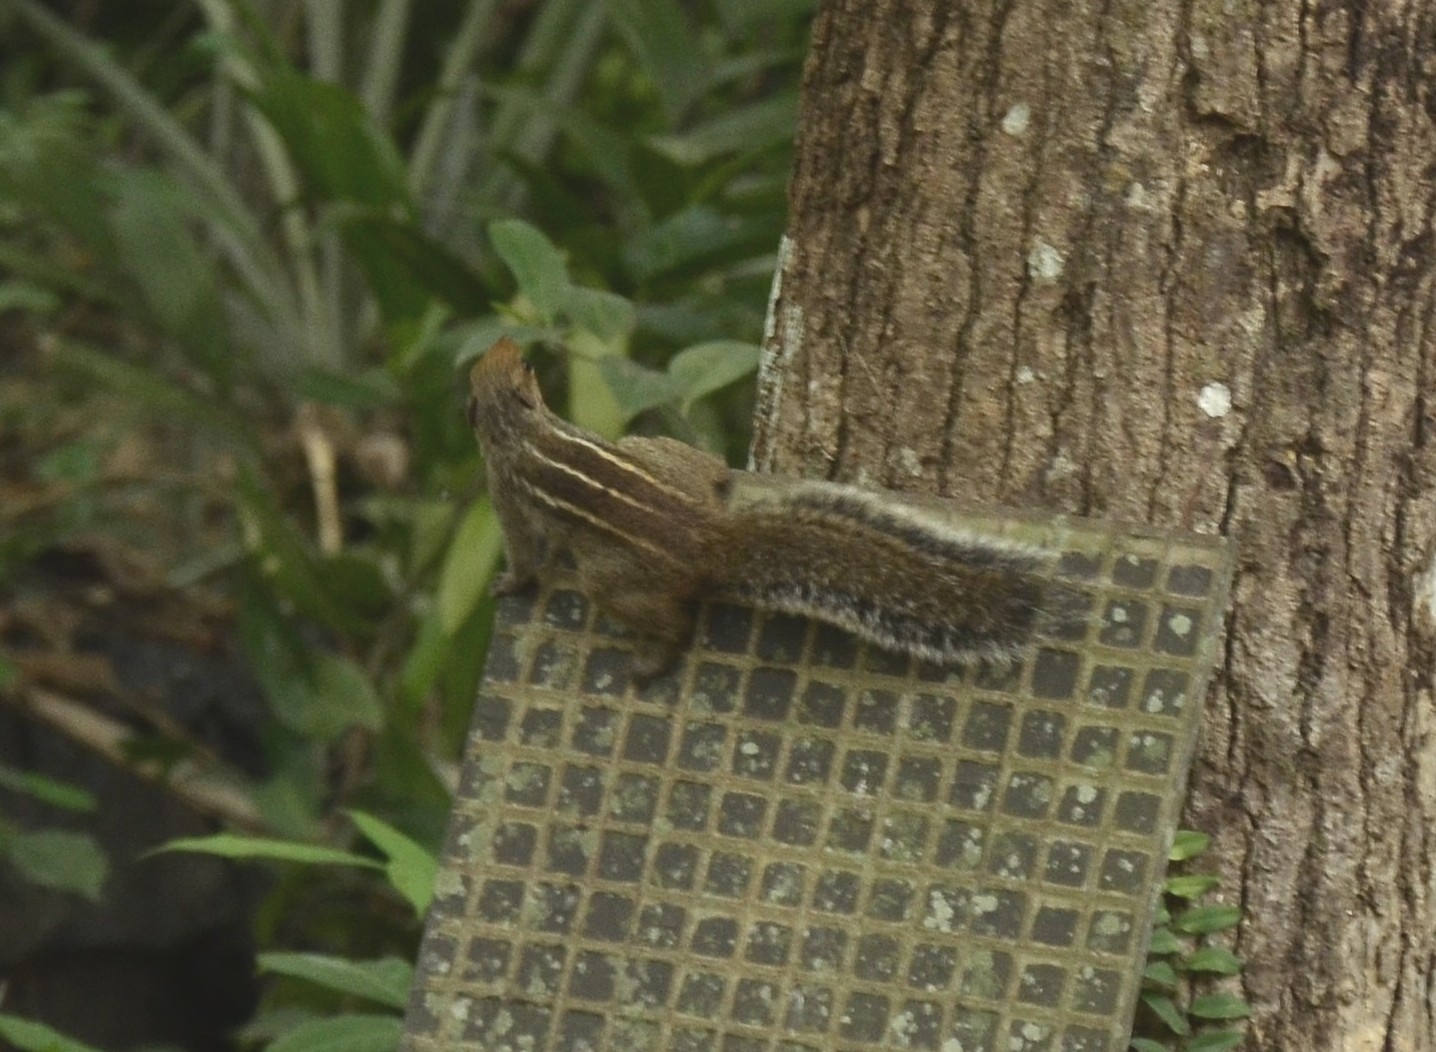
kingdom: Animalia
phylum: Chordata
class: Mammalia
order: Rodentia
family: Sciuridae
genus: Funambulus
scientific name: Funambulus tristriatus
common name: Jungle palm squirrel
